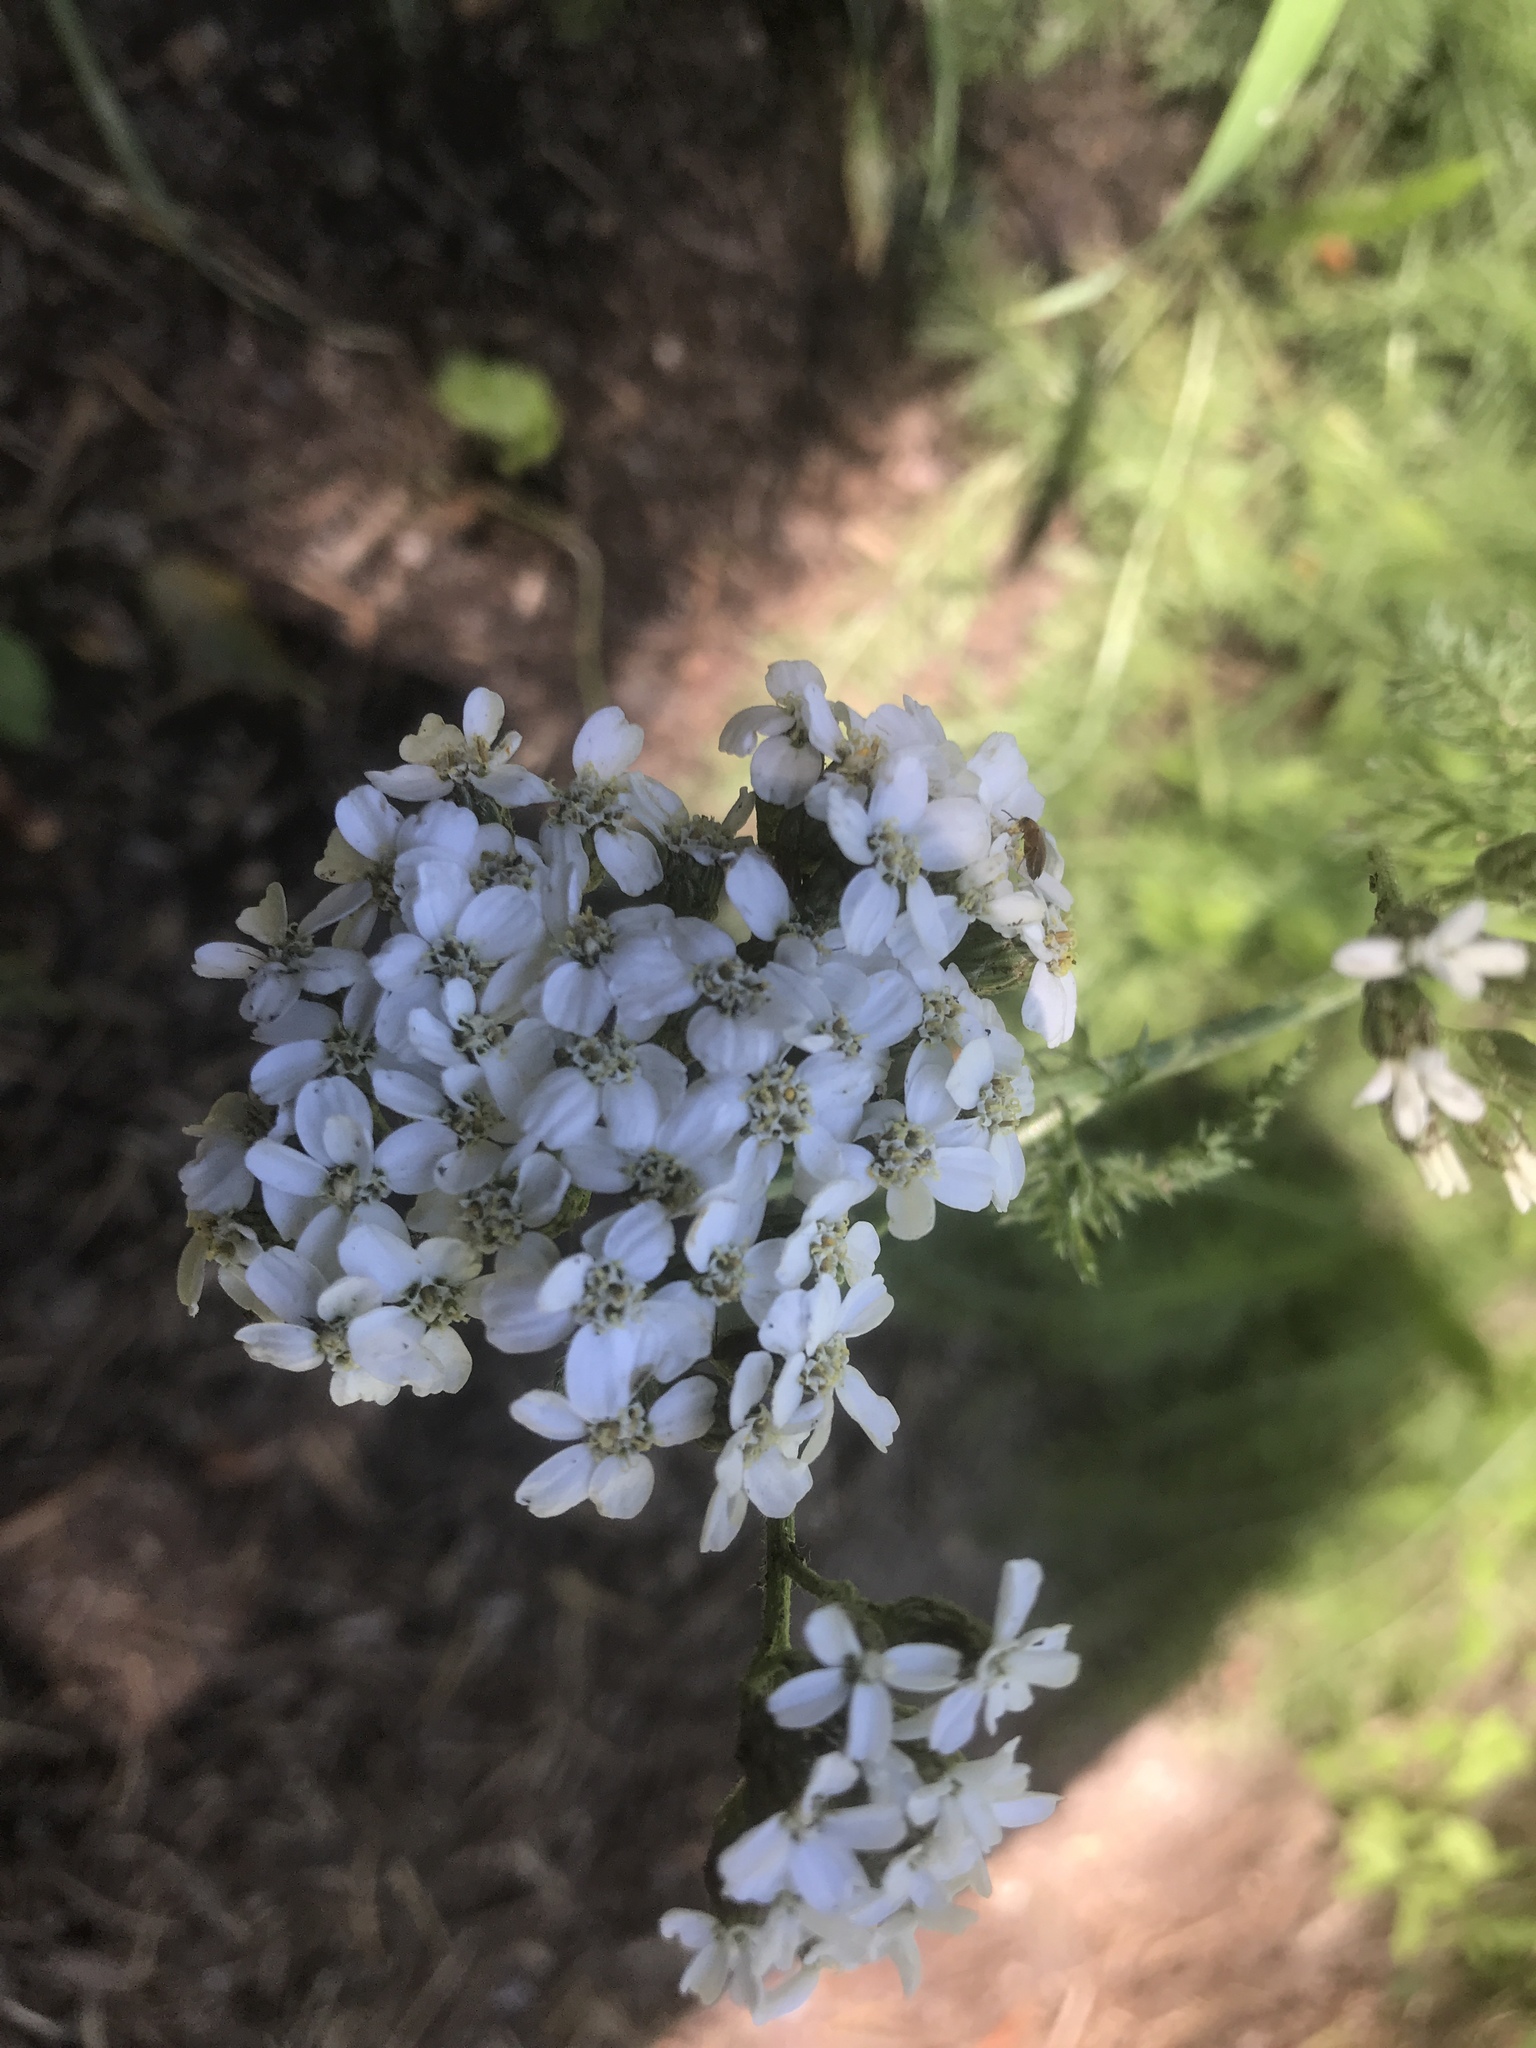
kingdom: Plantae
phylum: Tracheophyta
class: Magnoliopsida
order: Asterales
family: Asteraceae
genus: Achillea
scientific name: Achillea millefolium
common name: Yarrow
